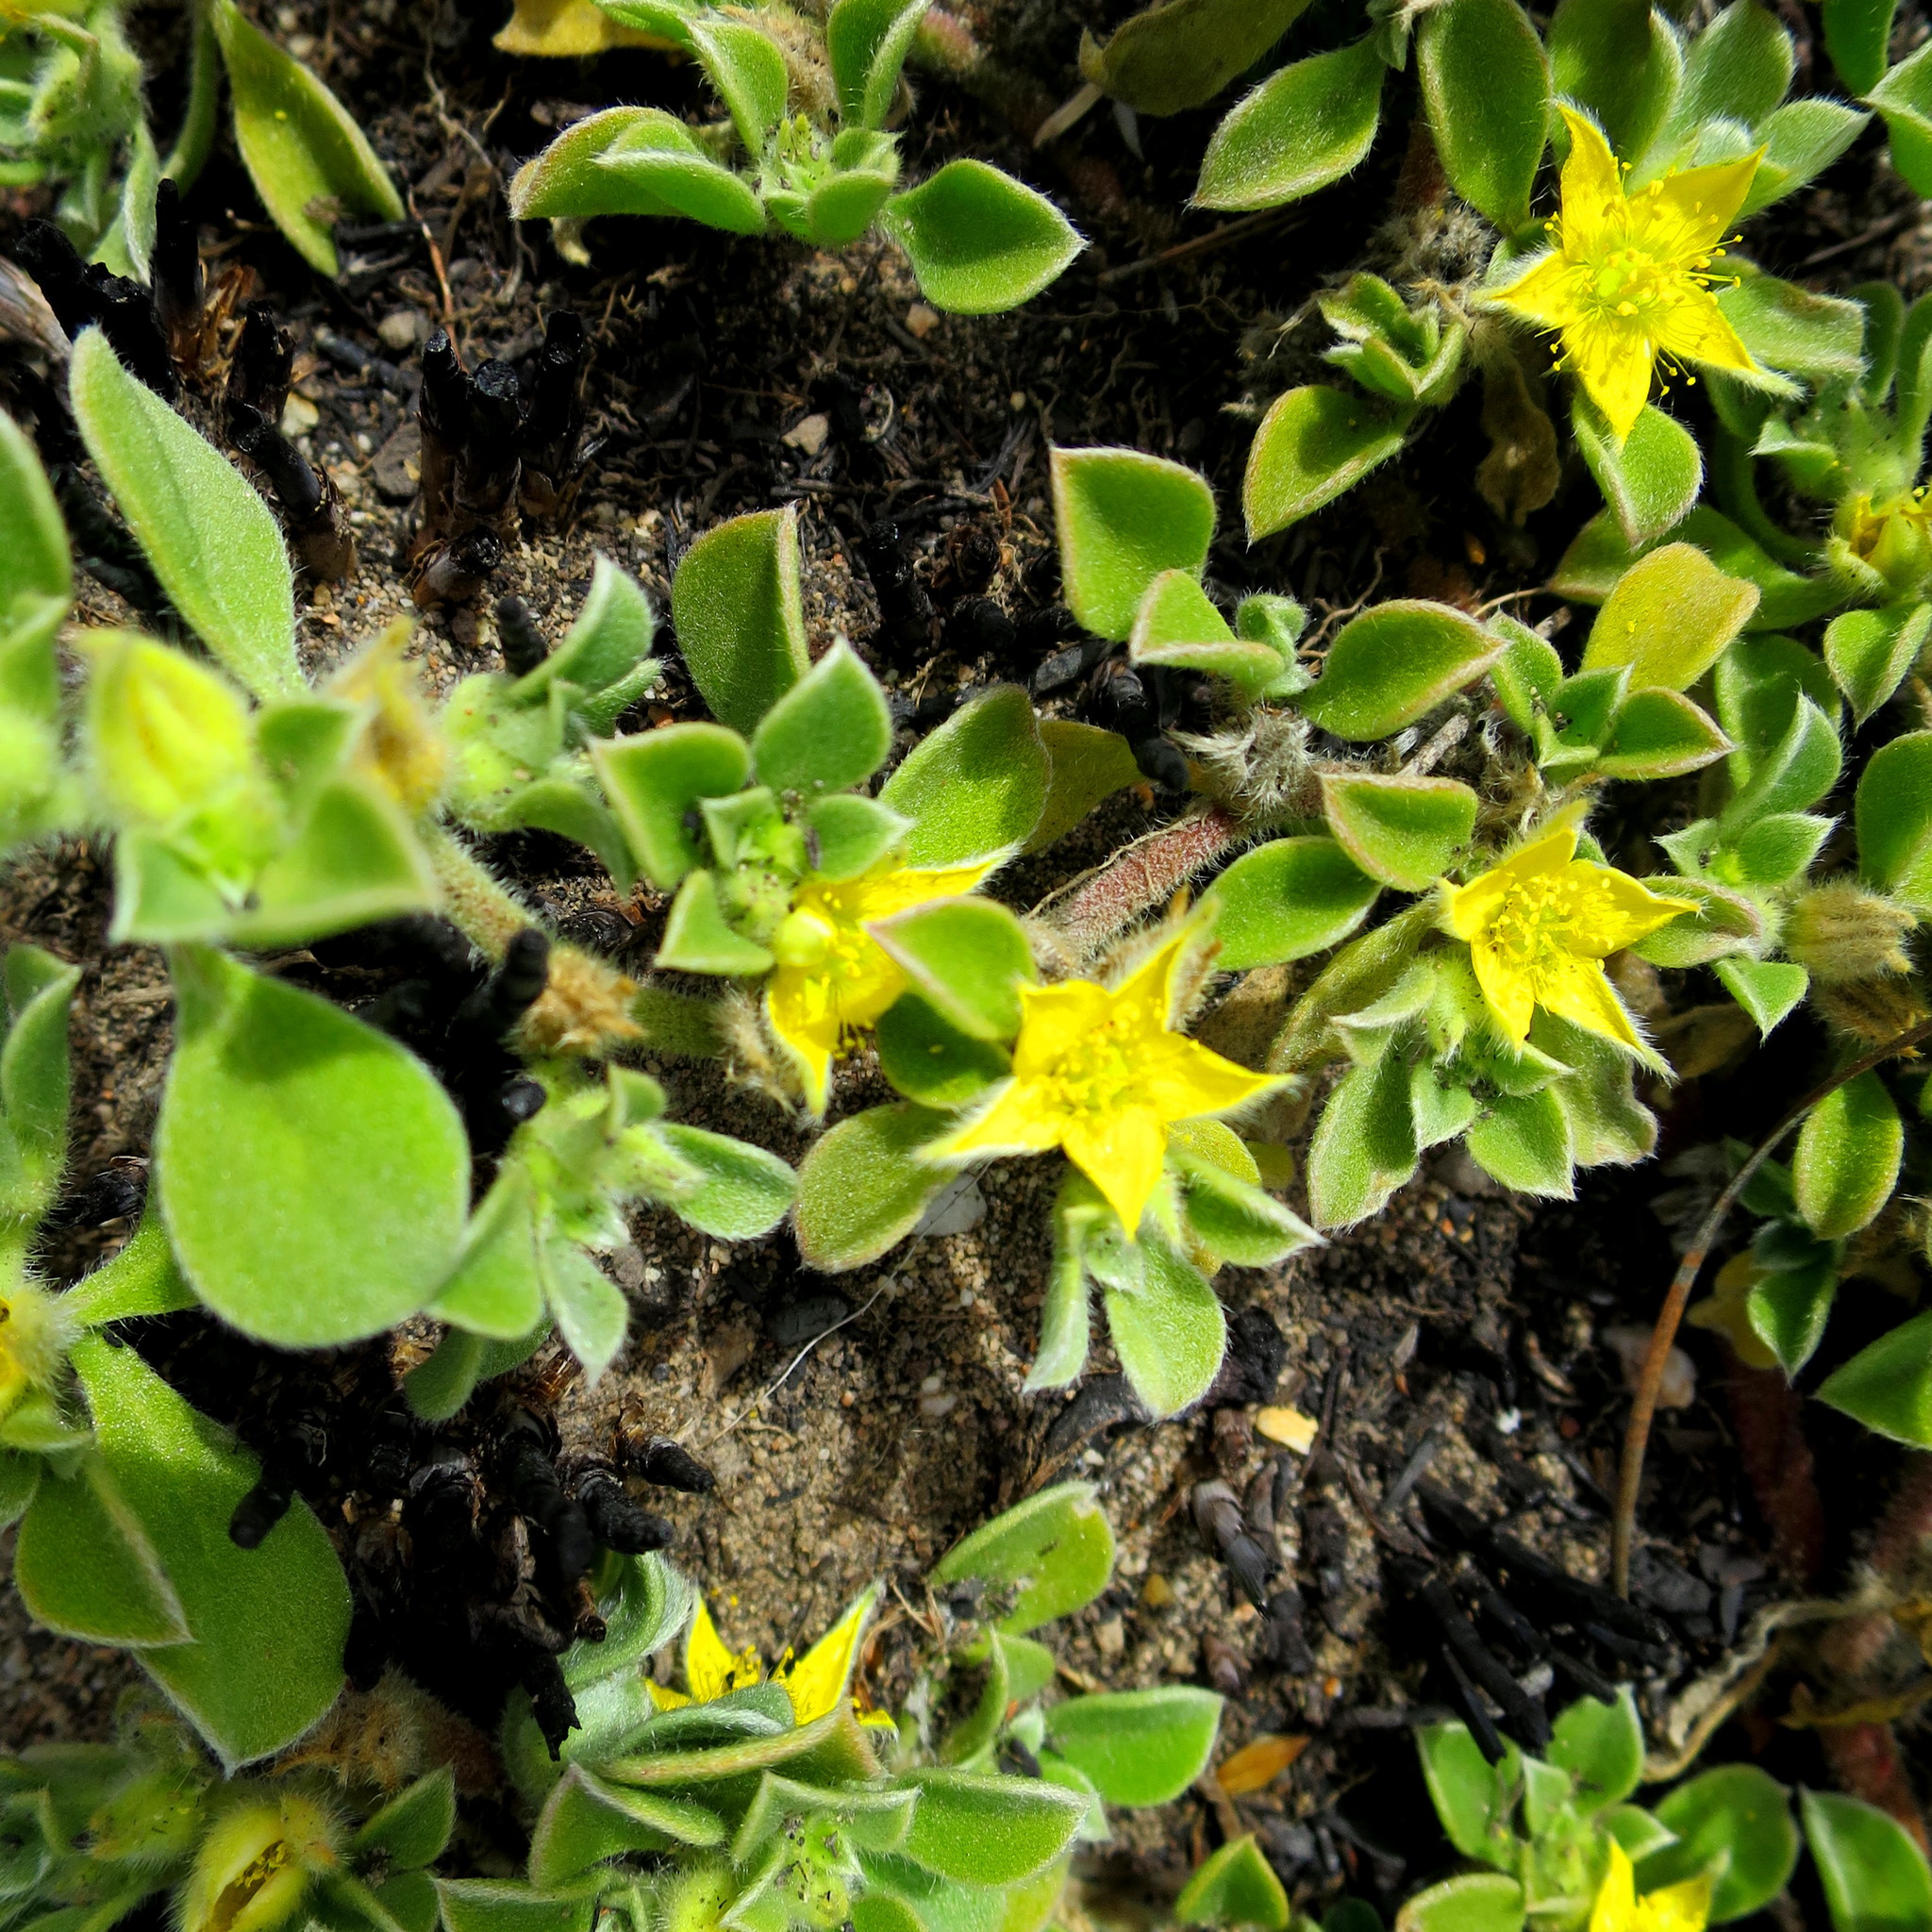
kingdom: Plantae
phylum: Tracheophyta
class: Magnoliopsida
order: Caryophyllales
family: Aizoaceae
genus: Aizoon
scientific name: Aizoon glinoides
